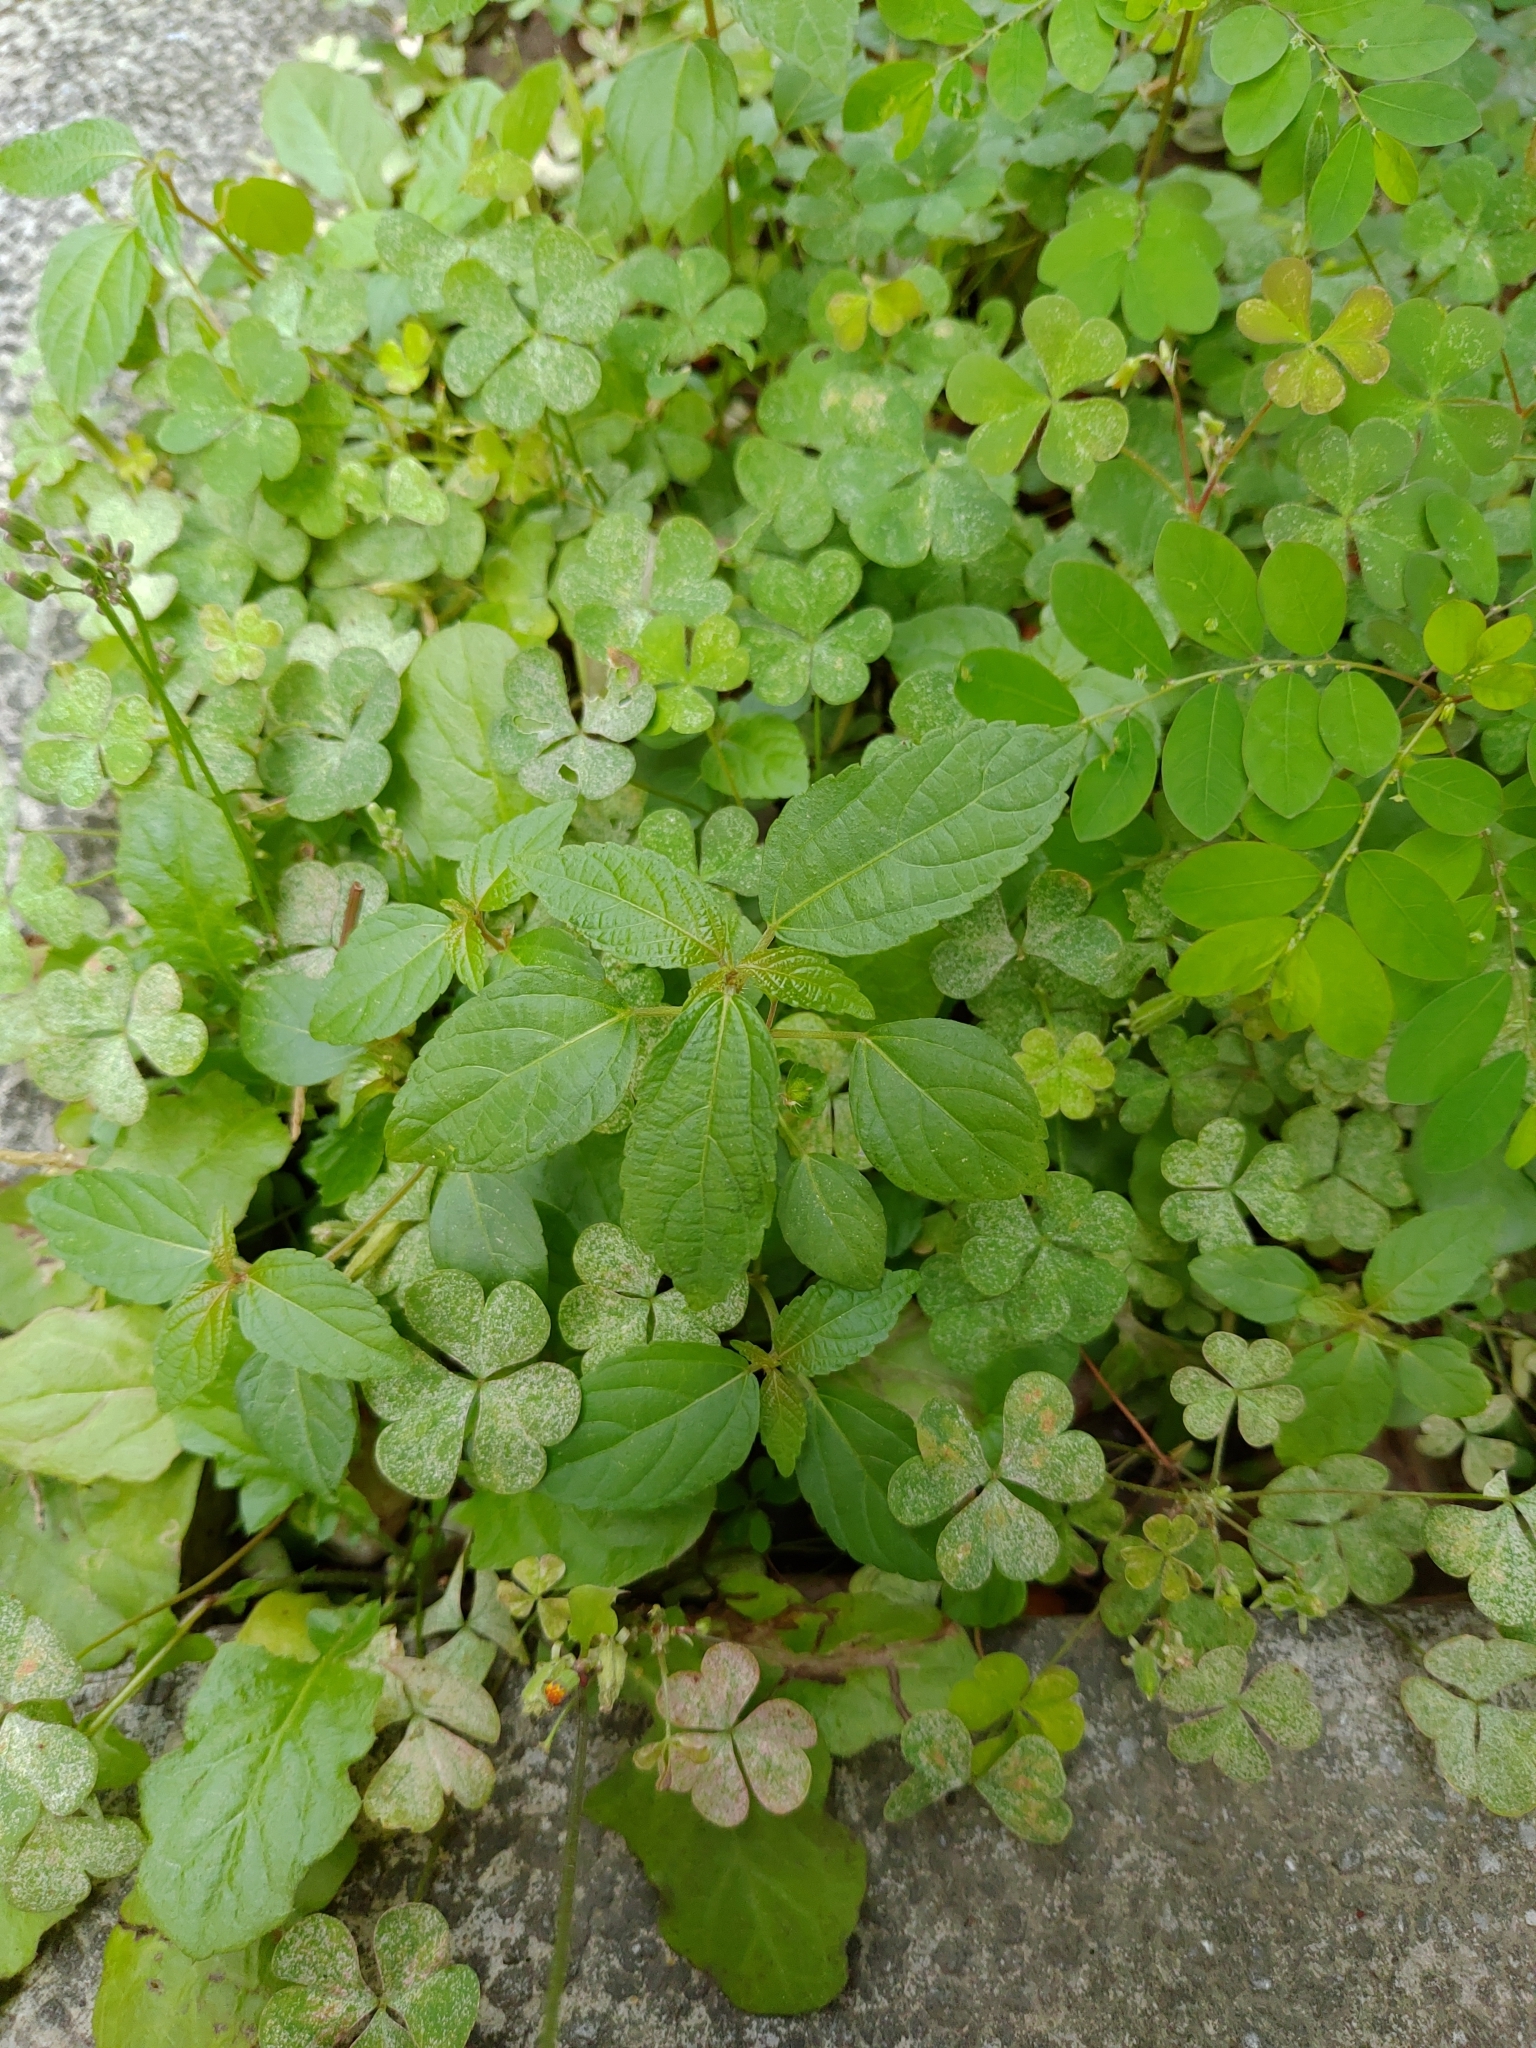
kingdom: Plantae
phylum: Tracheophyta
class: Magnoliopsida
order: Malpighiales
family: Euphorbiaceae
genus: Acalypha
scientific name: Acalypha australis
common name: Asian copperleaf
